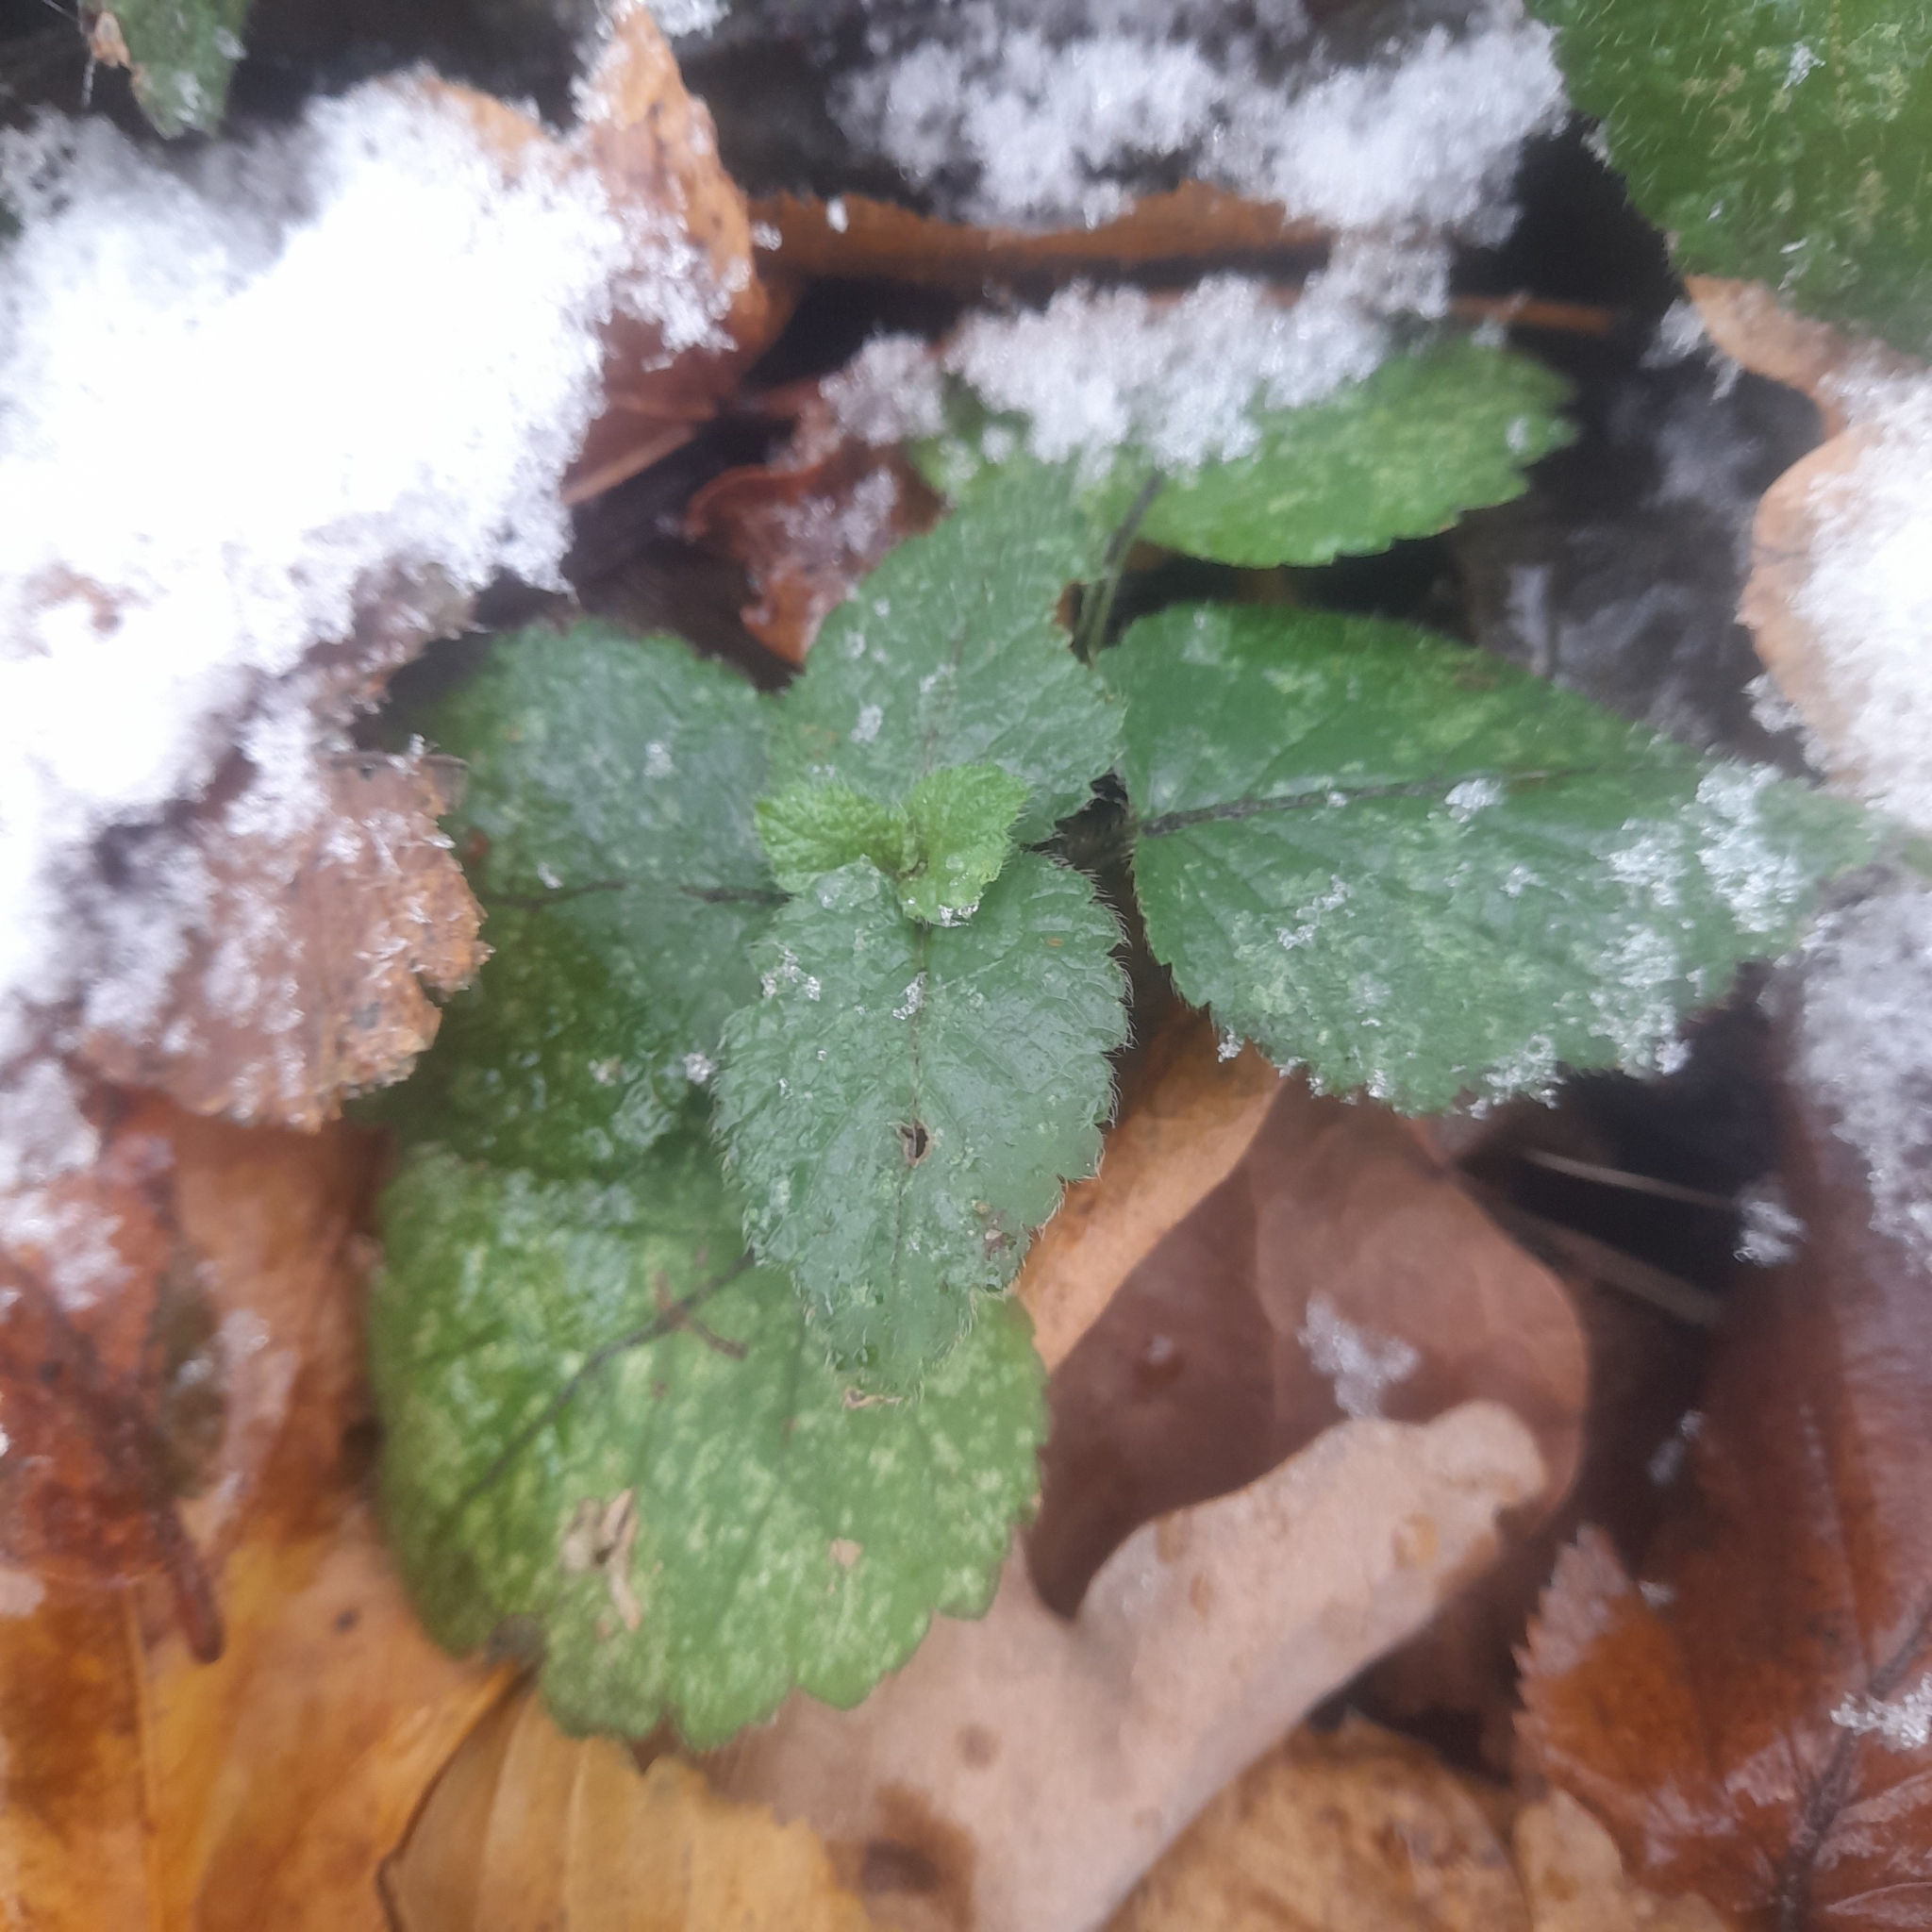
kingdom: Plantae
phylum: Tracheophyta
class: Magnoliopsida
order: Lamiales
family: Lamiaceae
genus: Lamium
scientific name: Lamium galeobdolon
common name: Yellow archangel
